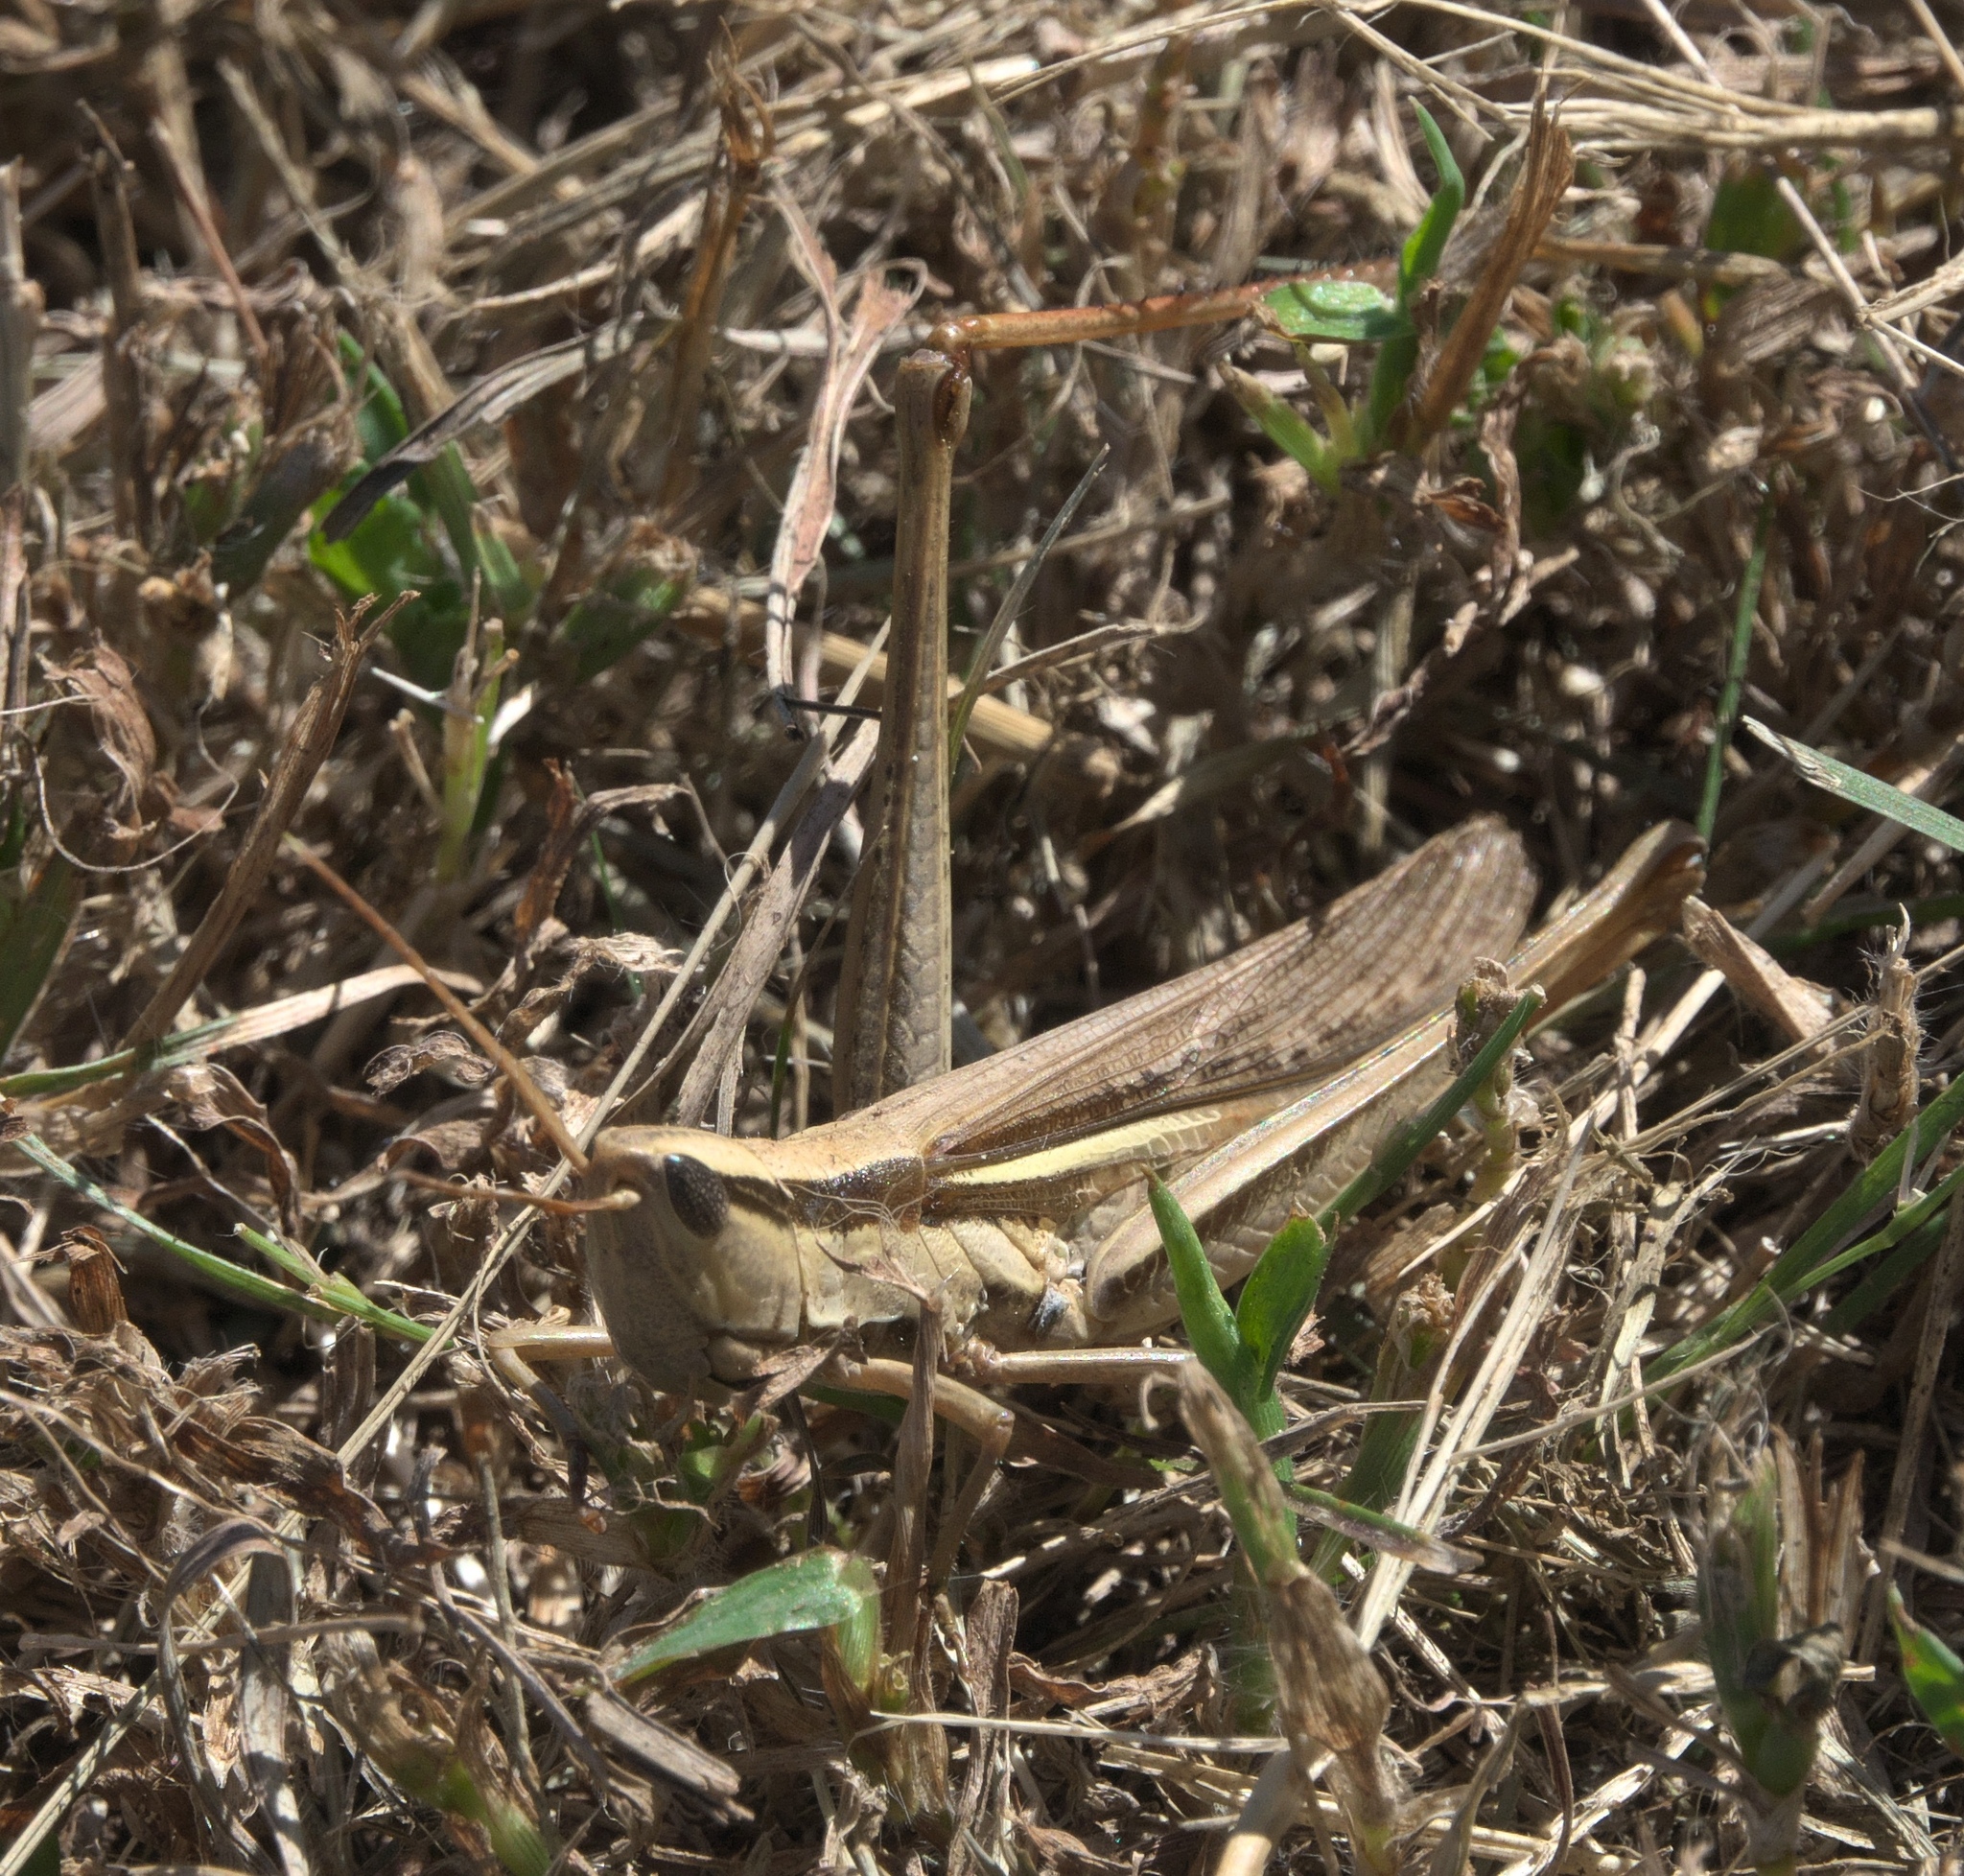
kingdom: Animalia
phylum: Arthropoda
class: Insecta
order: Orthoptera
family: Acrididae
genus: Mermiria
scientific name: Mermiria bivittata
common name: Two-striped mermiria grasshopper
